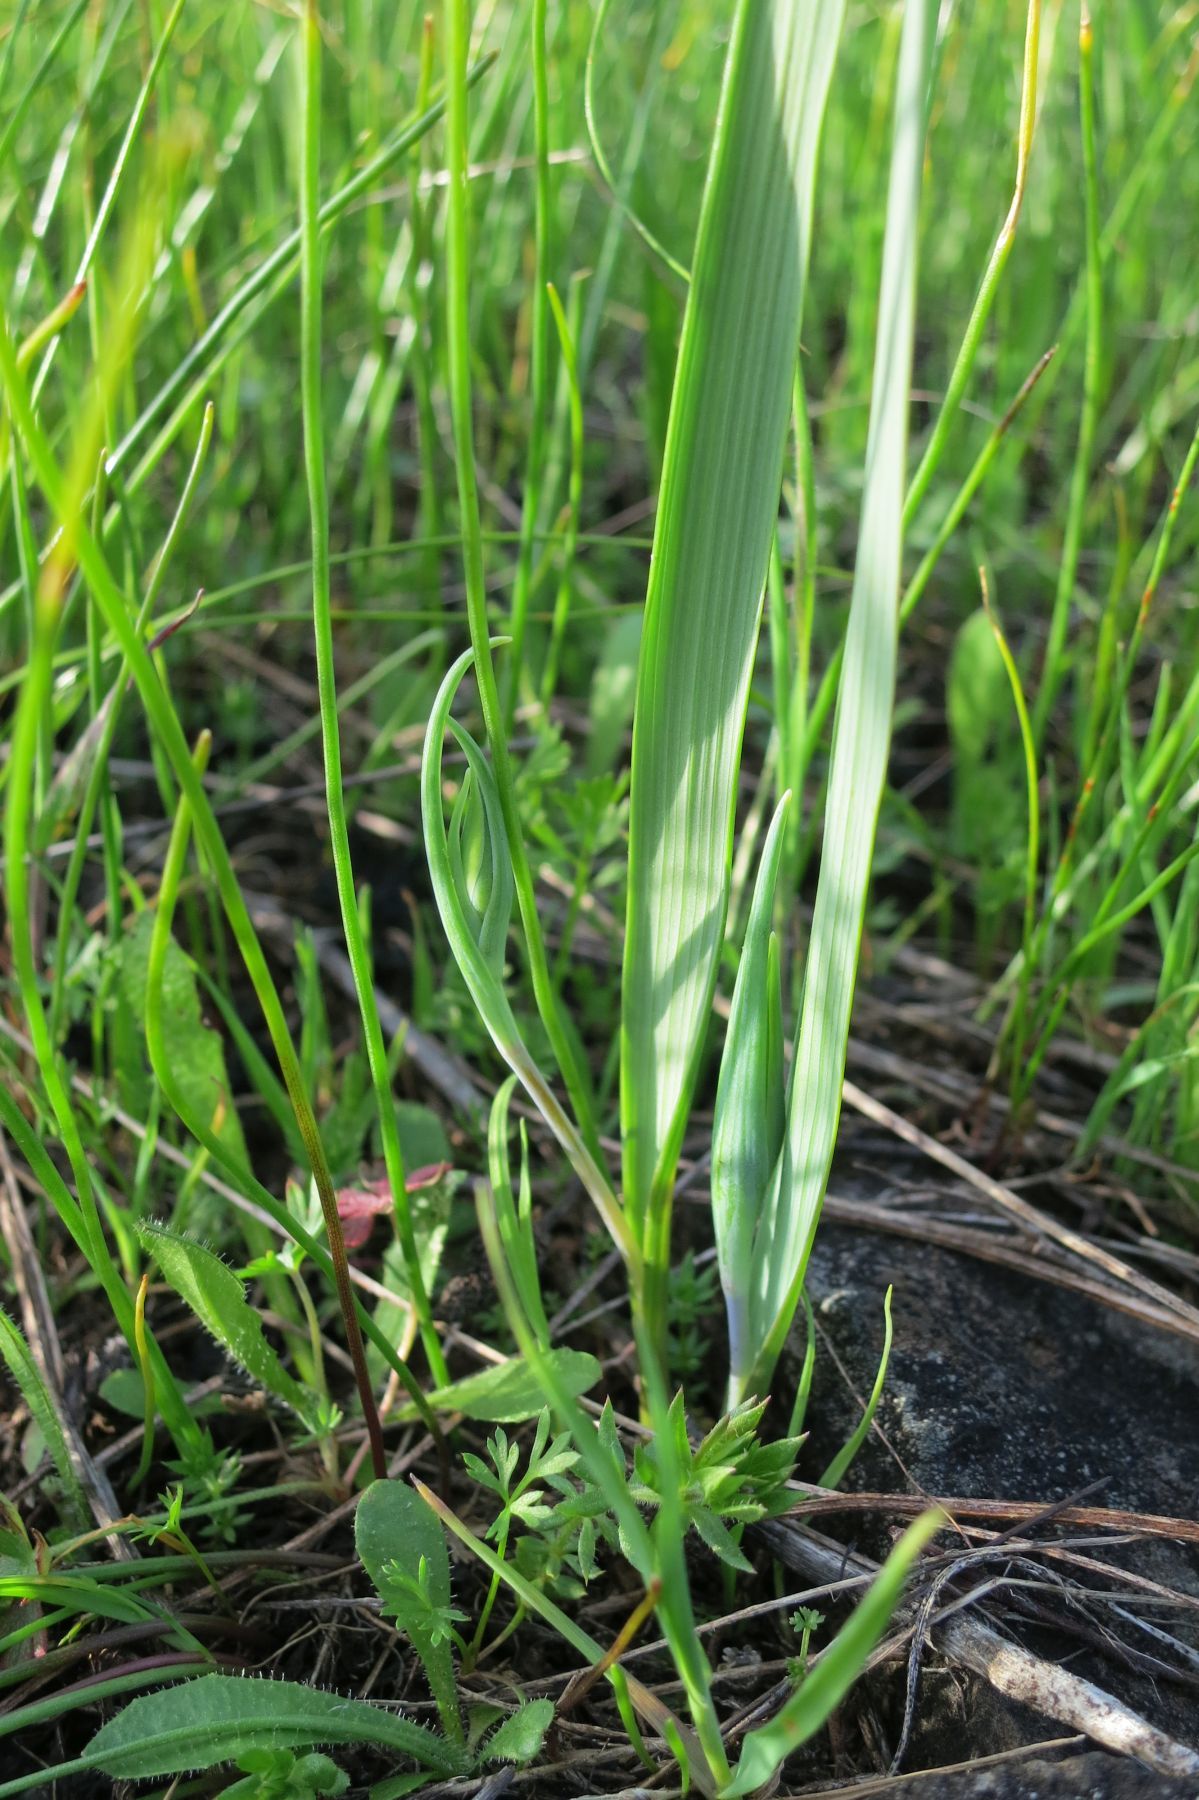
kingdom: Plantae
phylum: Tracheophyta
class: Liliopsida
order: Liliales
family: Liliaceae
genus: Calochortus
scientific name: Calochortus tolmiei
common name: Pussy-ears
